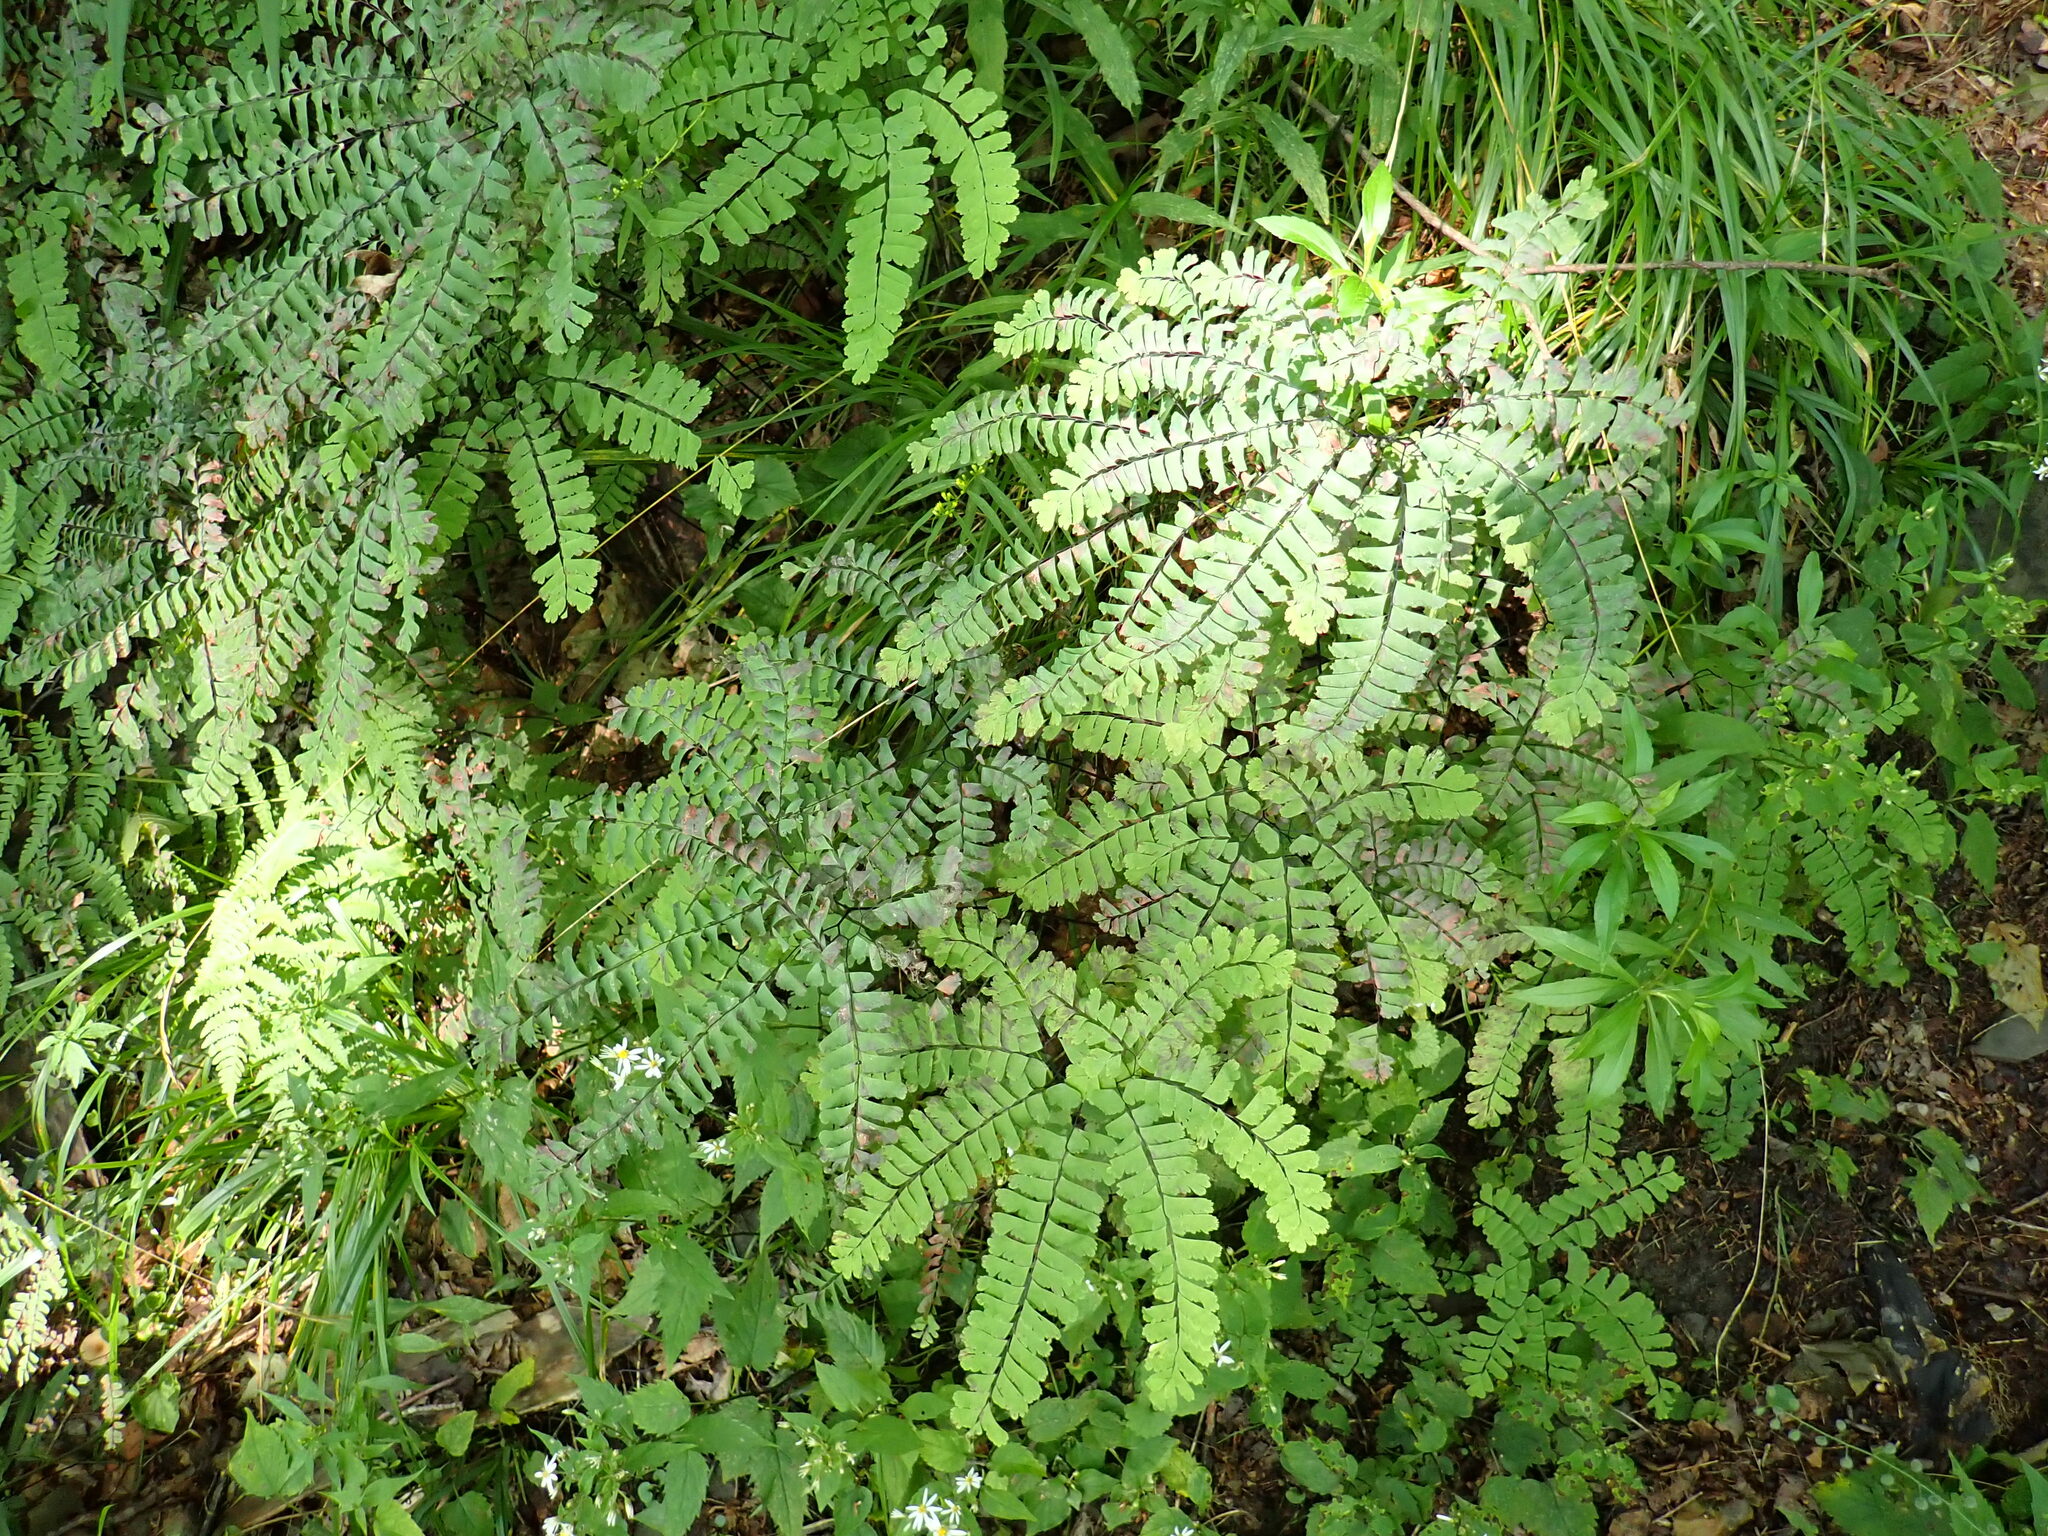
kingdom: Plantae
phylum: Tracheophyta
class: Polypodiopsida
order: Polypodiales
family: Pteridaceae
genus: Adiantum
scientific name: Adiantum pedatum
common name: Five-finger fern
